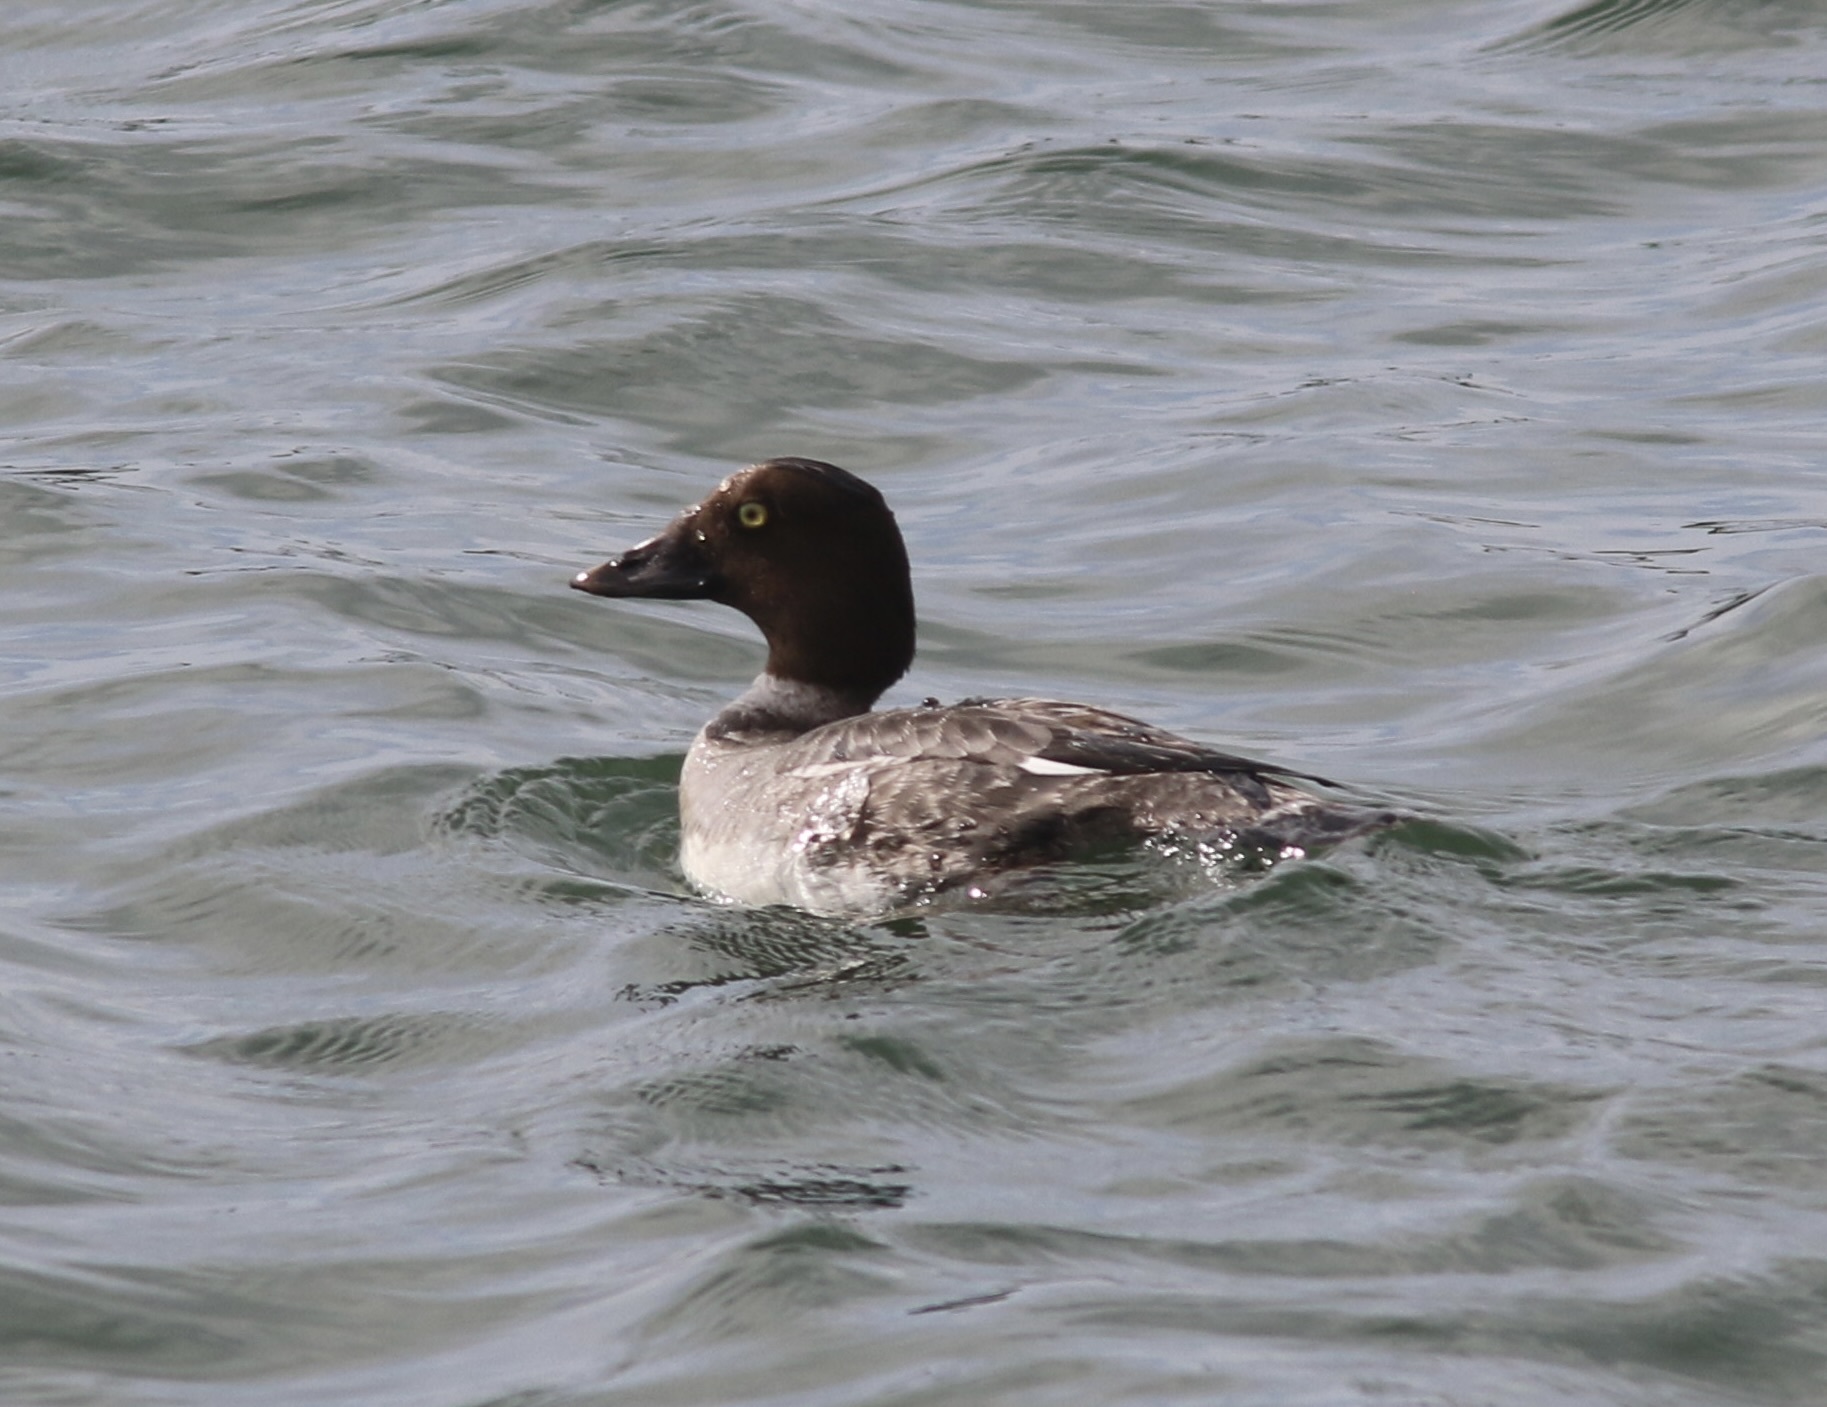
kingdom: Animalia
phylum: Chordata
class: Aves
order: Anseriformes
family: Anatidae
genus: Bucephala
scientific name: Bucephala clangula
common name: Common goldeneye
